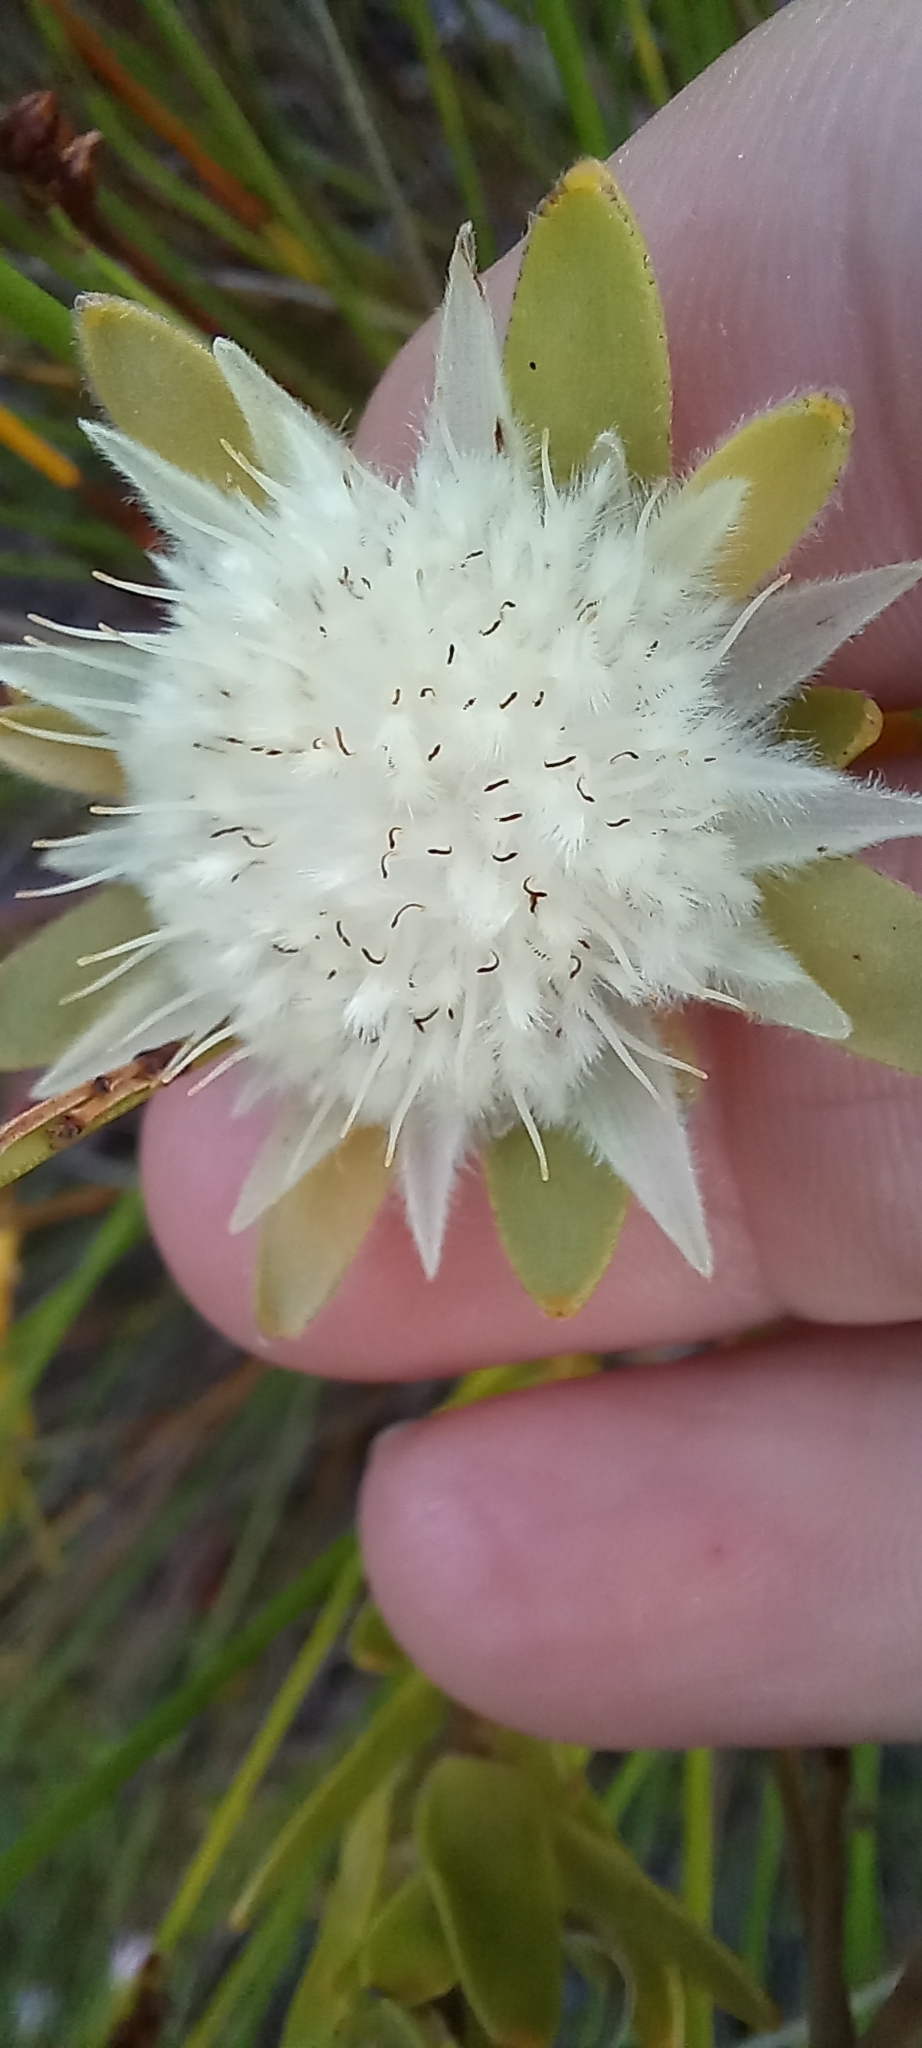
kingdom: Plantae
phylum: Tracheophyta
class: Magnoliopsida
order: Proteales
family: Proteaceae
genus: Diastella
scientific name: Diastella thymelaeoides
